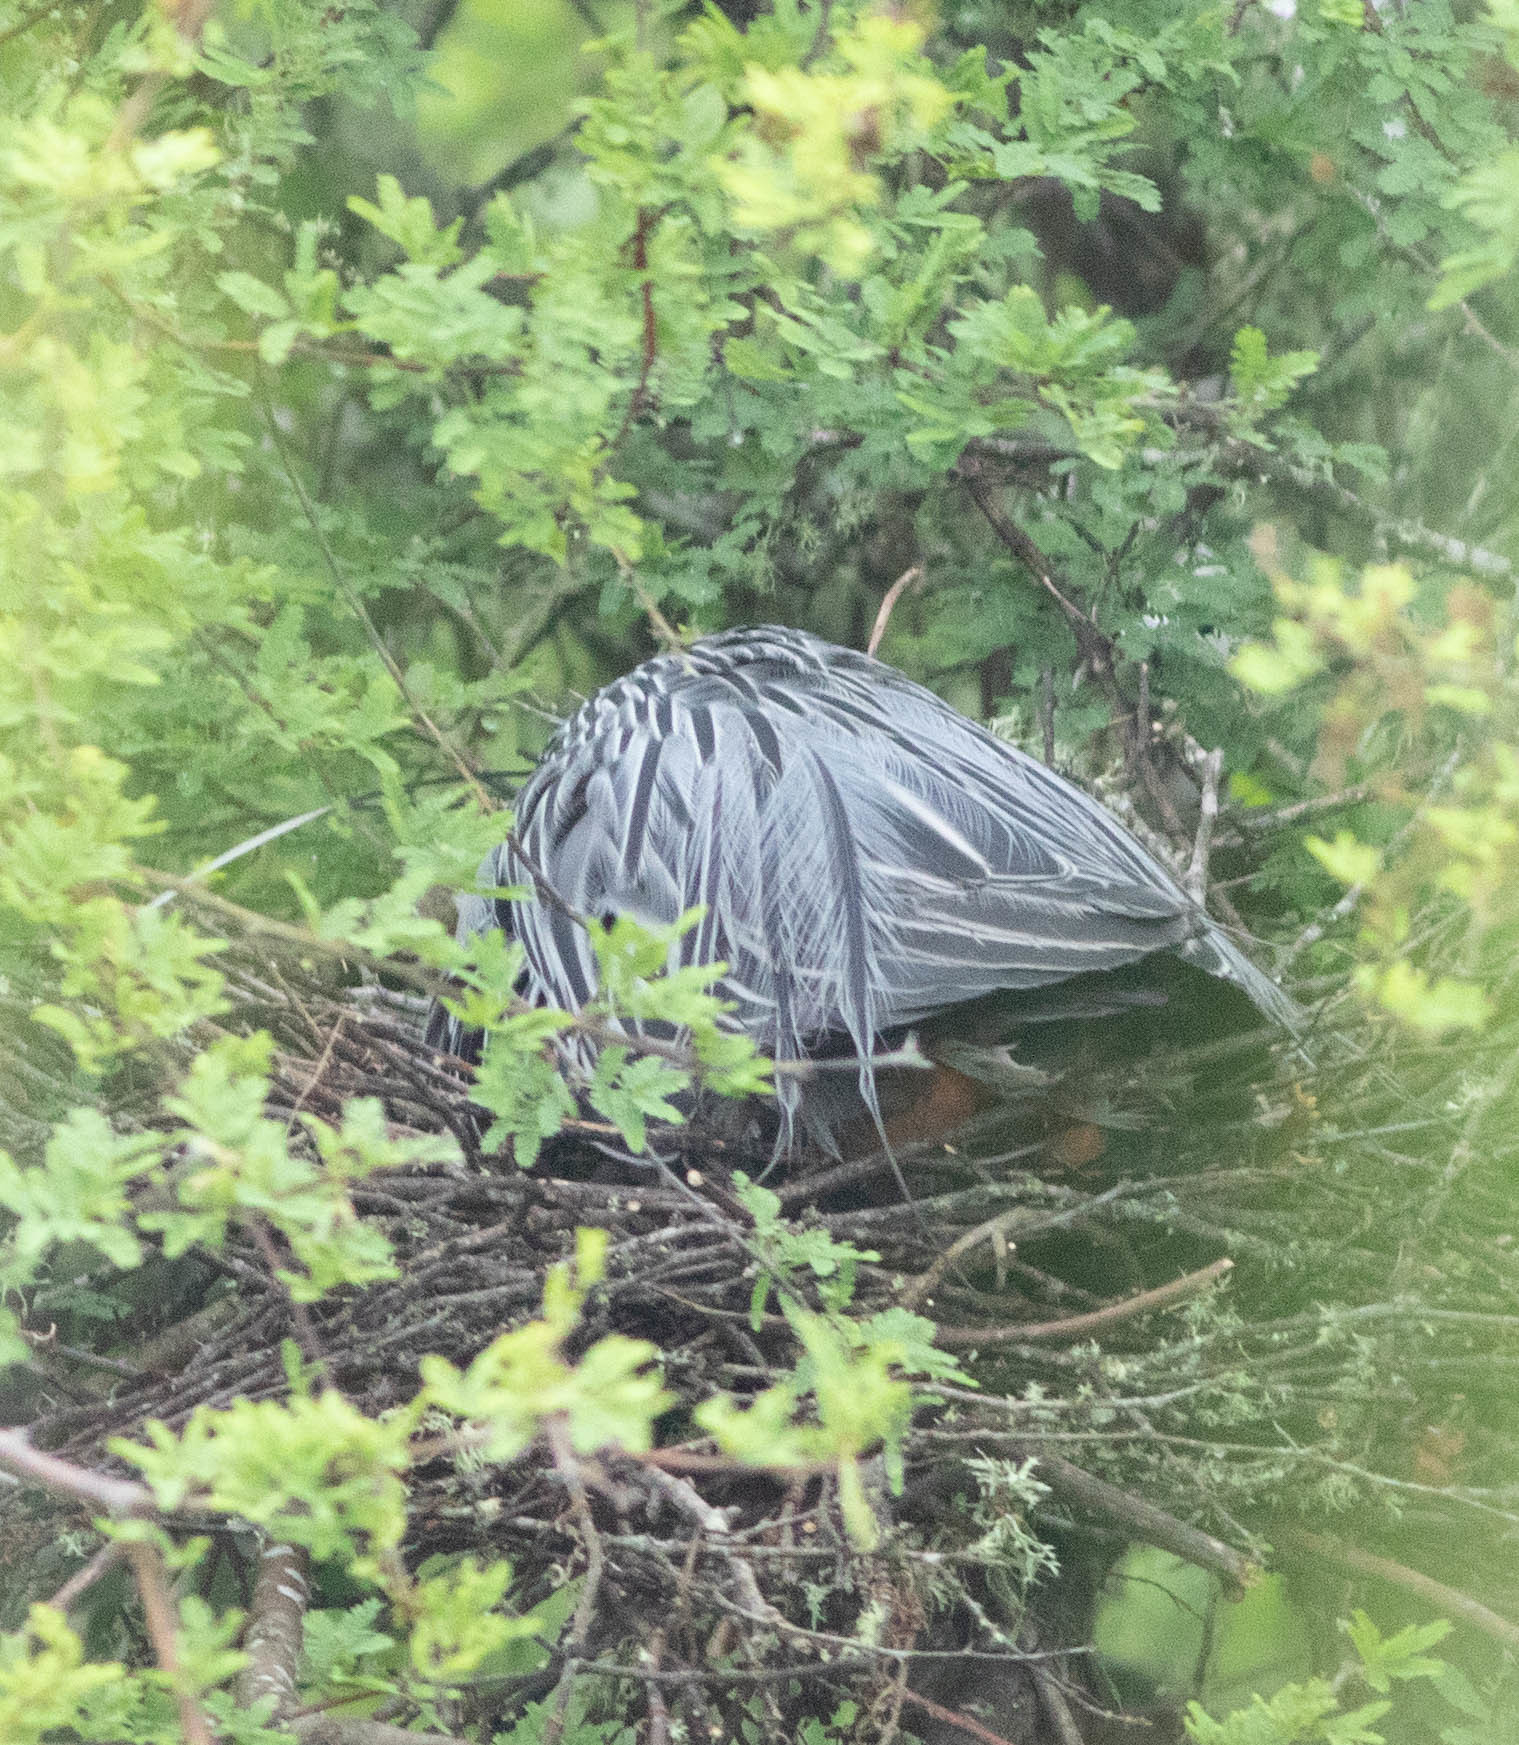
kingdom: Animalia
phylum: Chordata
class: Aves
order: Pelecaniformes
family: Ardeidae
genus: Nyctanassa
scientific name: Nyctanassa violacea
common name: Yellow-crowned night heron
